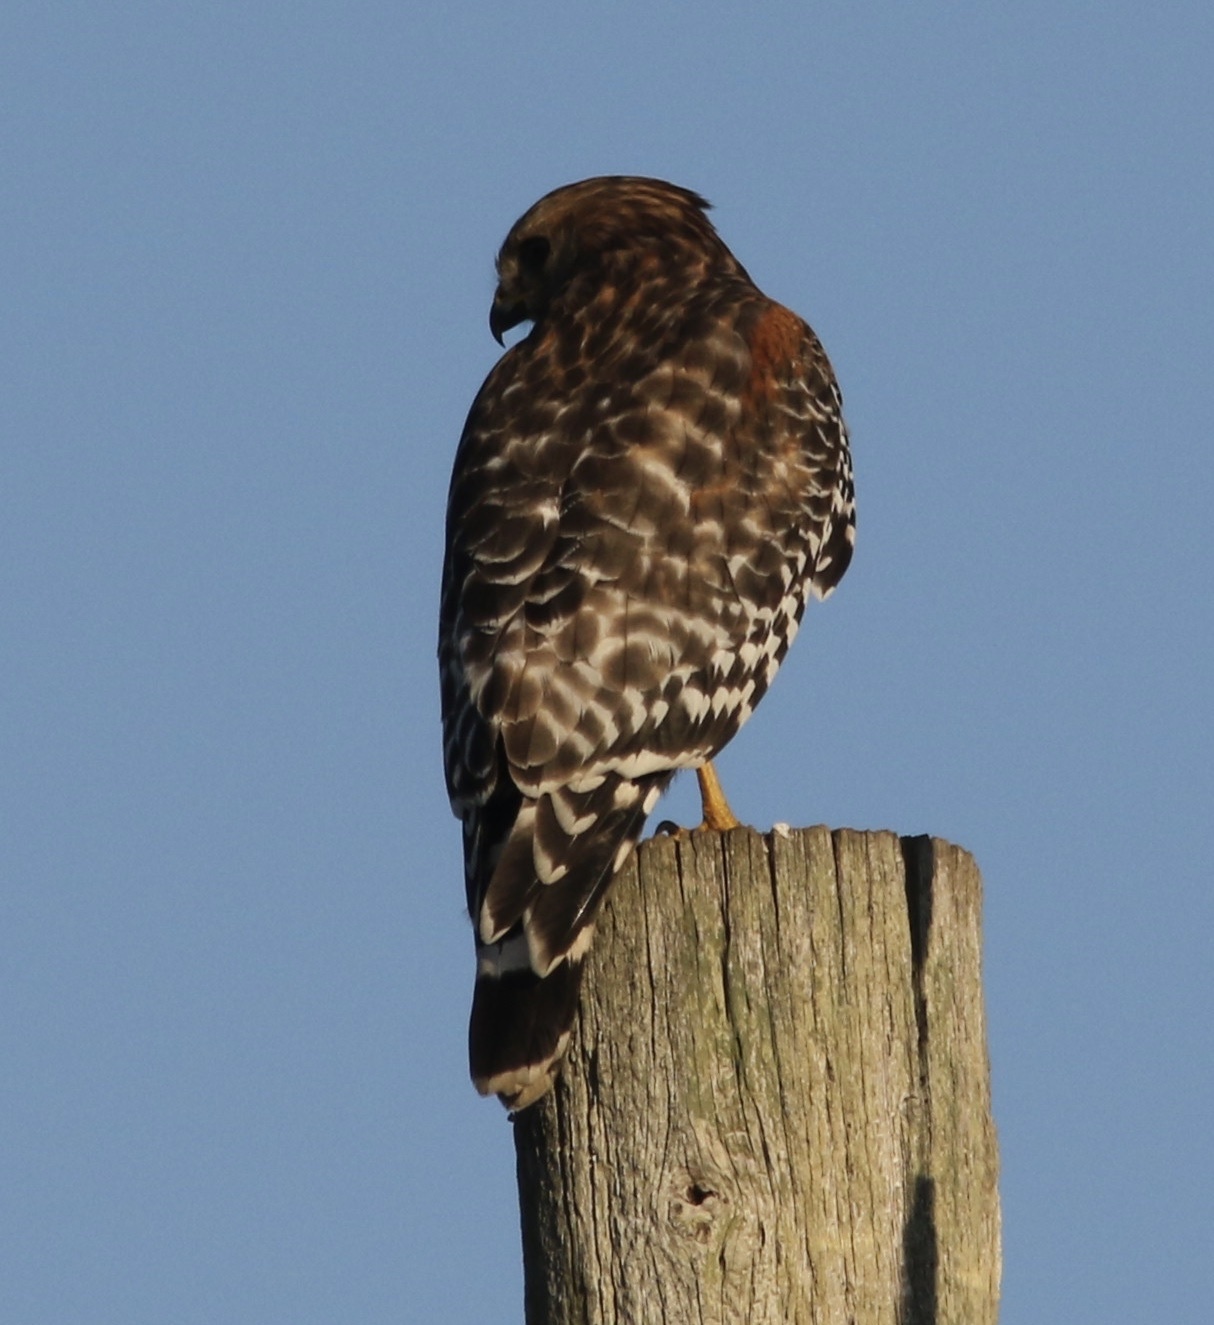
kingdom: Animalia
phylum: Chordata
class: Aves
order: Accipitriformes
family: Accipitridae
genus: Buteo
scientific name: Buteo lineatus
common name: Red-shouldered hawk
